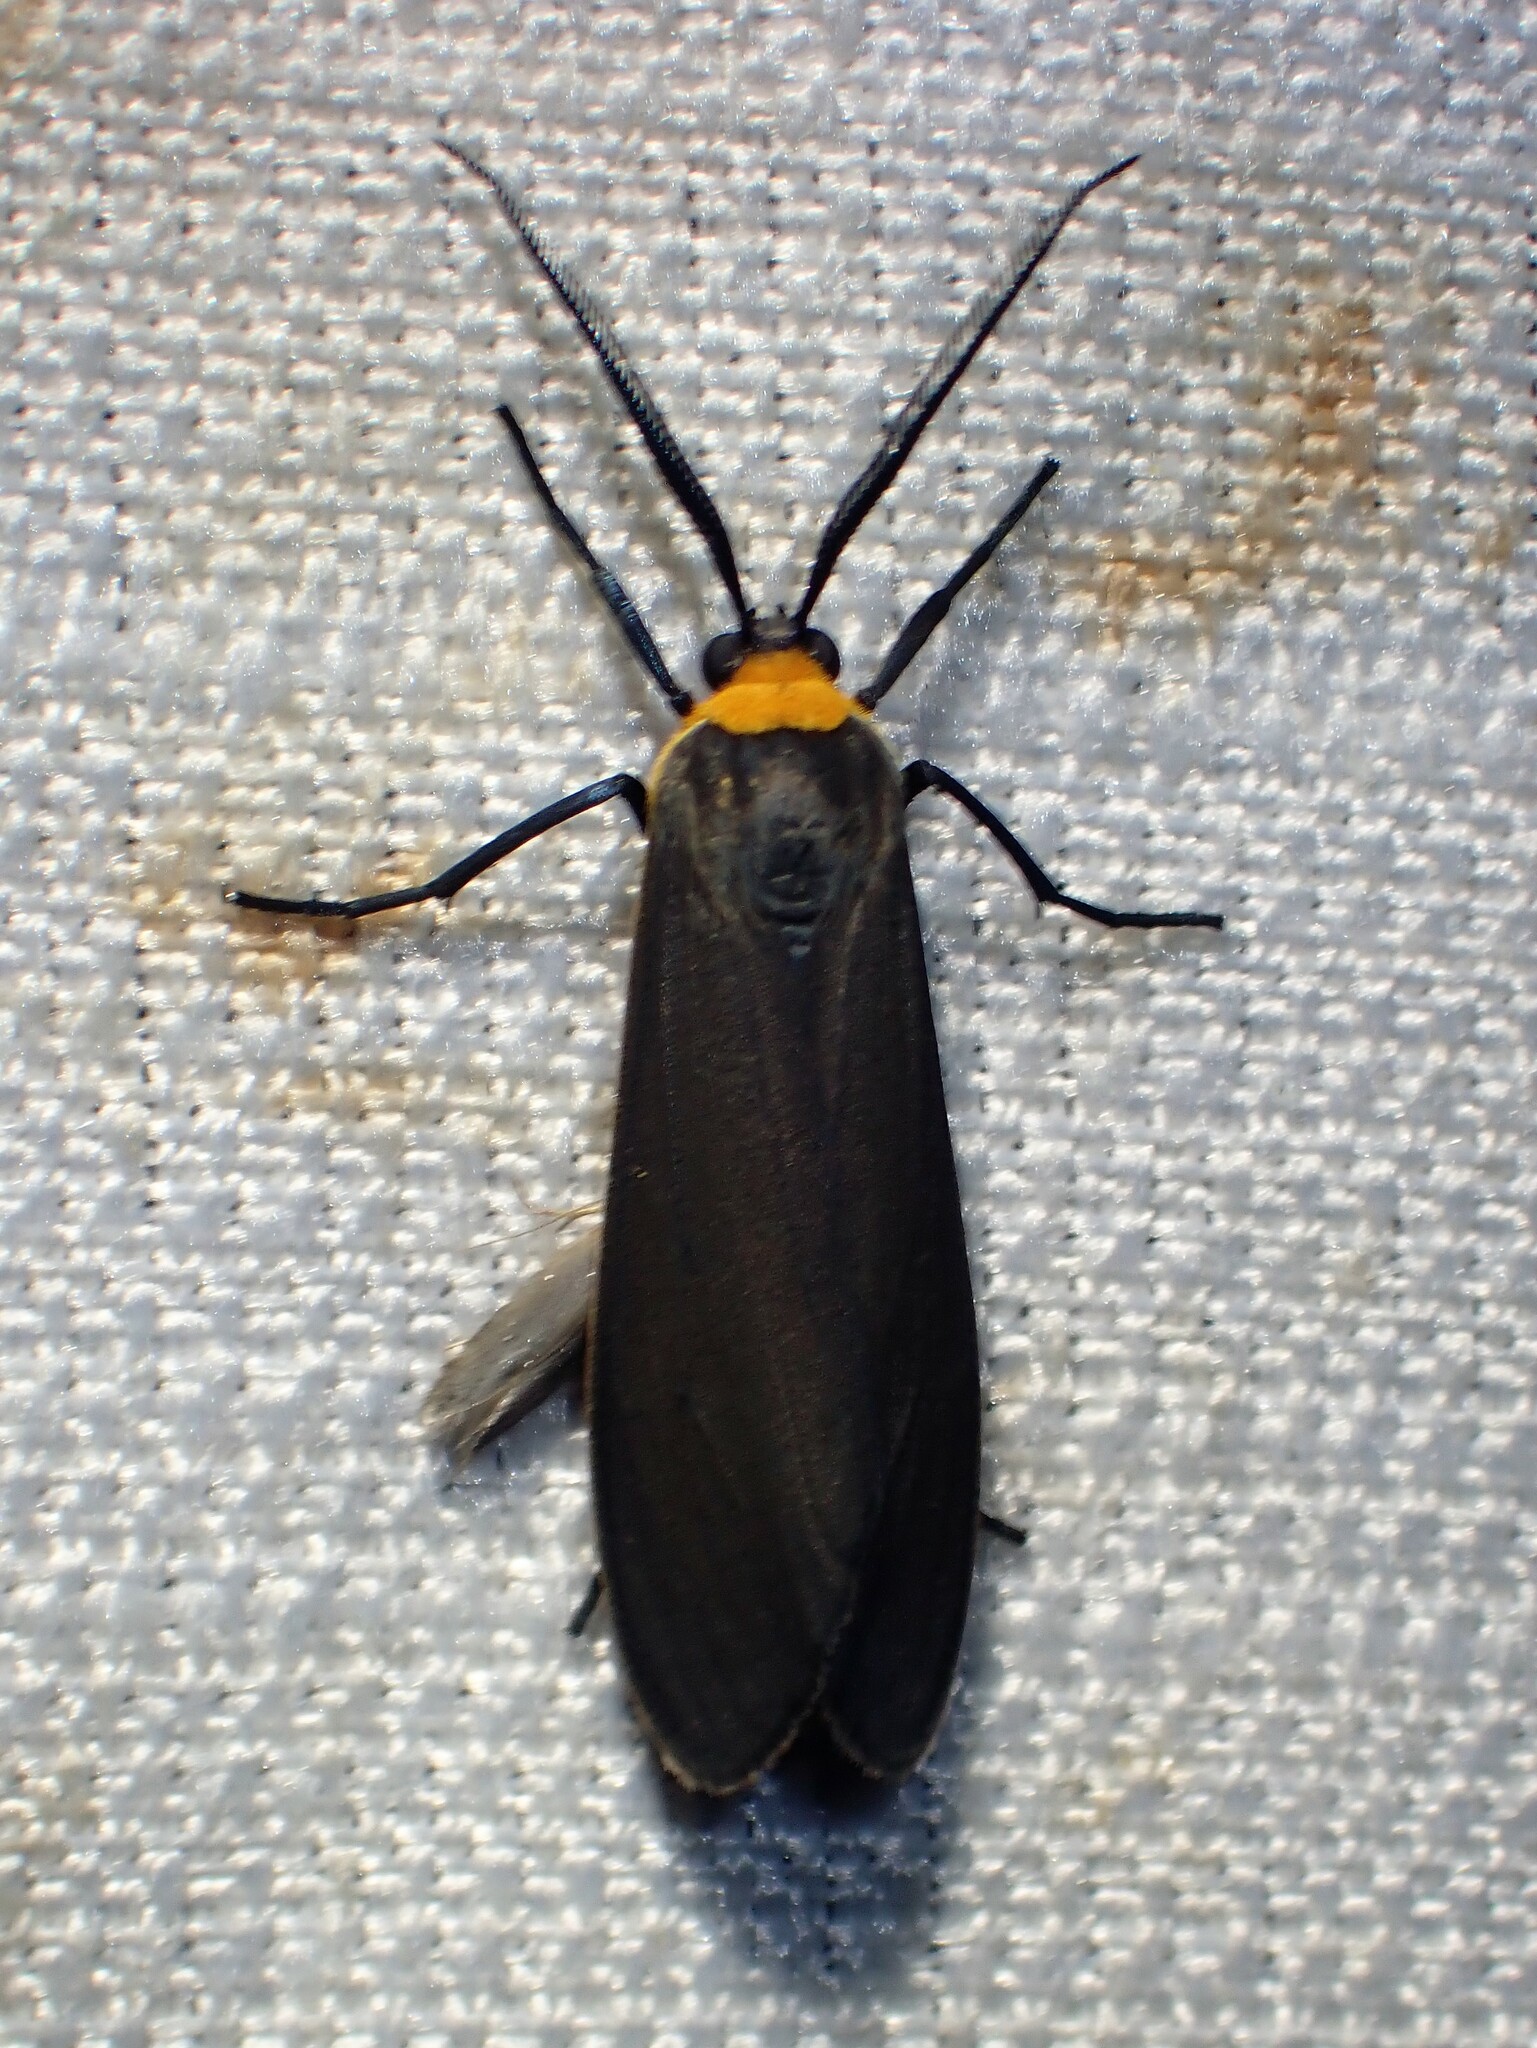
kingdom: Animalia
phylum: Arthropoda
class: Insecta
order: Lepidoptera
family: Erebidae
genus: Cisseps
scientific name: Cisseps fulvicollis
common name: Yellow-collared scape moth
